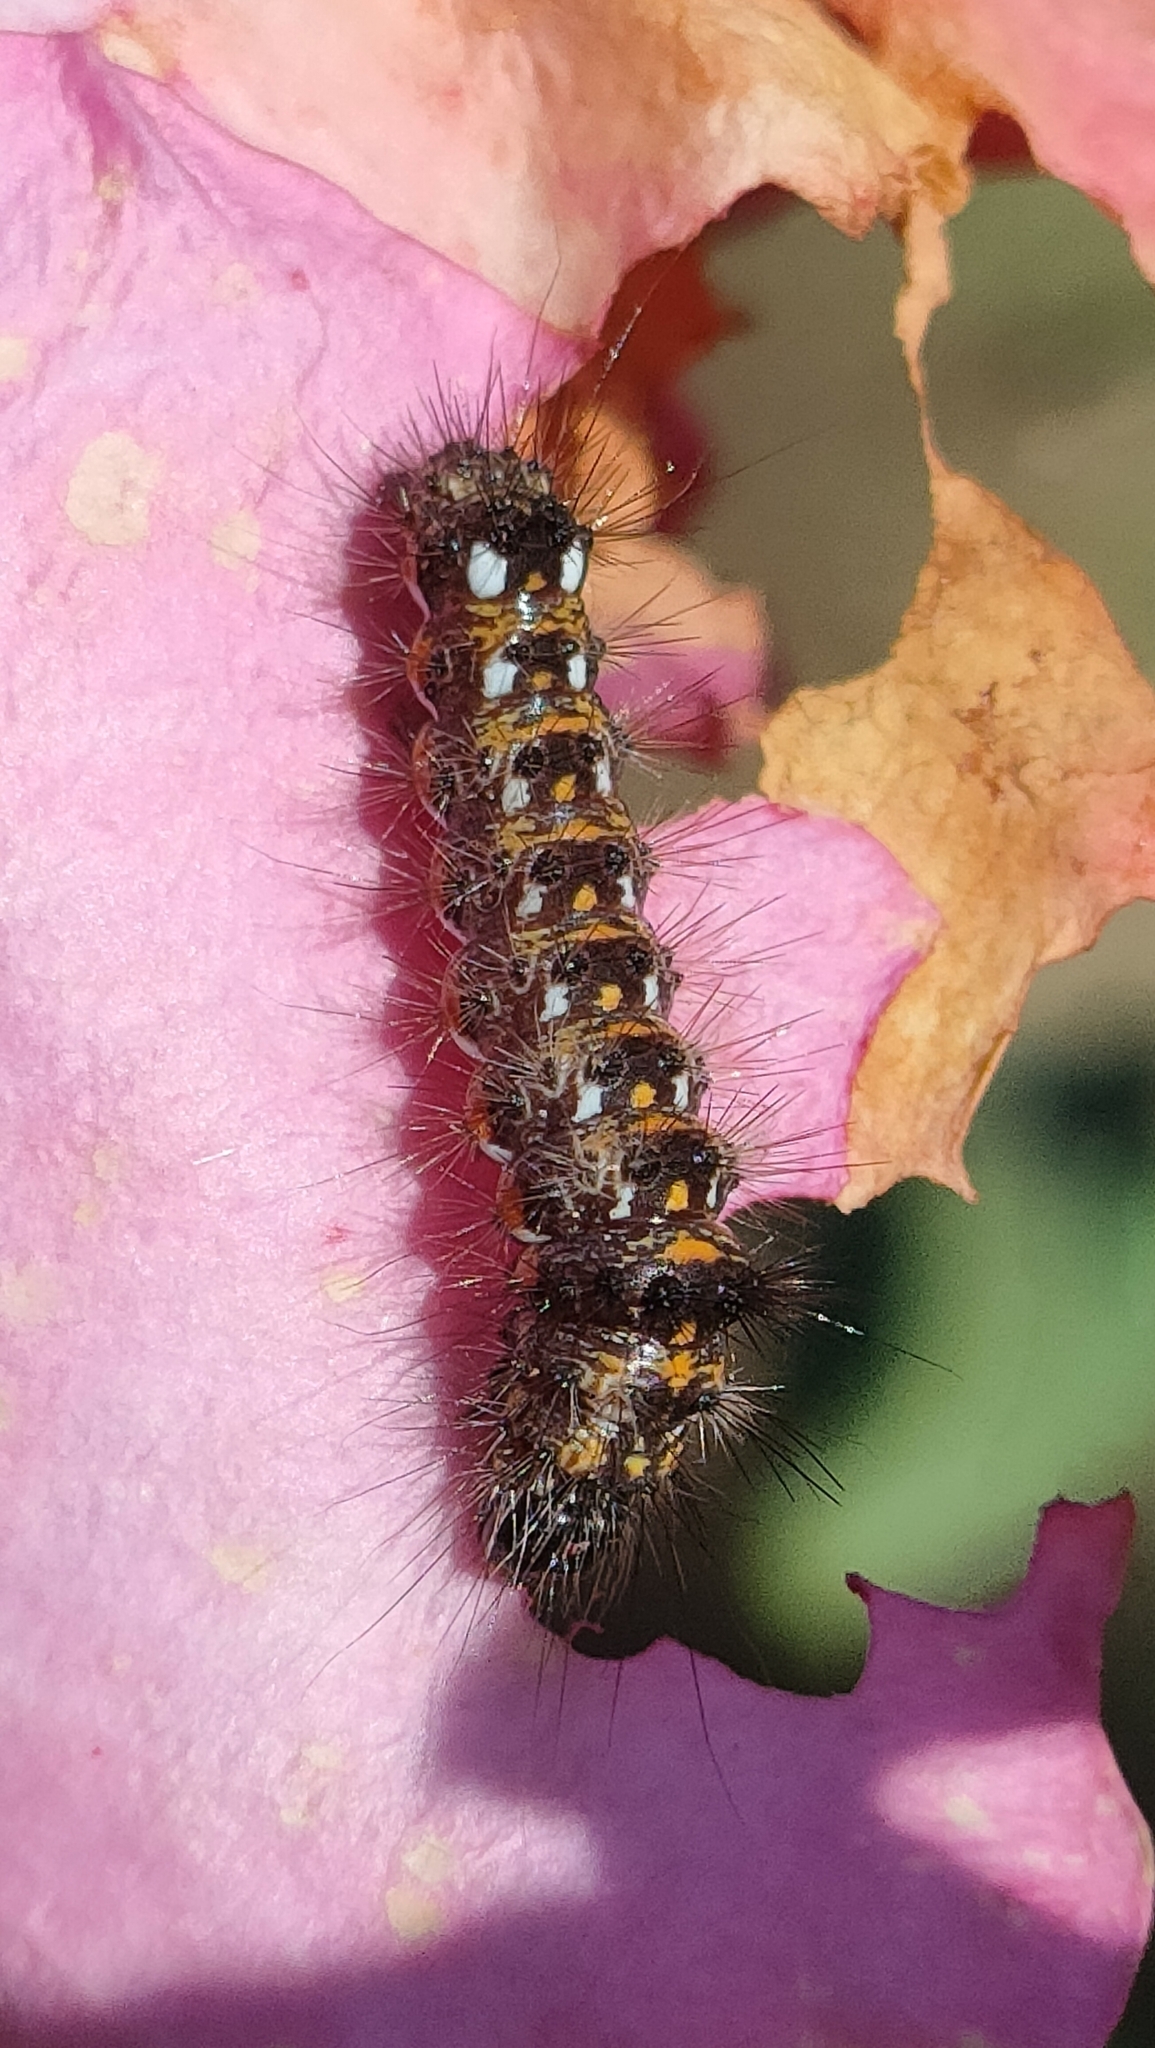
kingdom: Animalia
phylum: Arthropoda
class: Insecta
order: Lepidoptera
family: Noctuidae
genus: Acronicta
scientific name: Acronicta rumicis
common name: Knot grass
